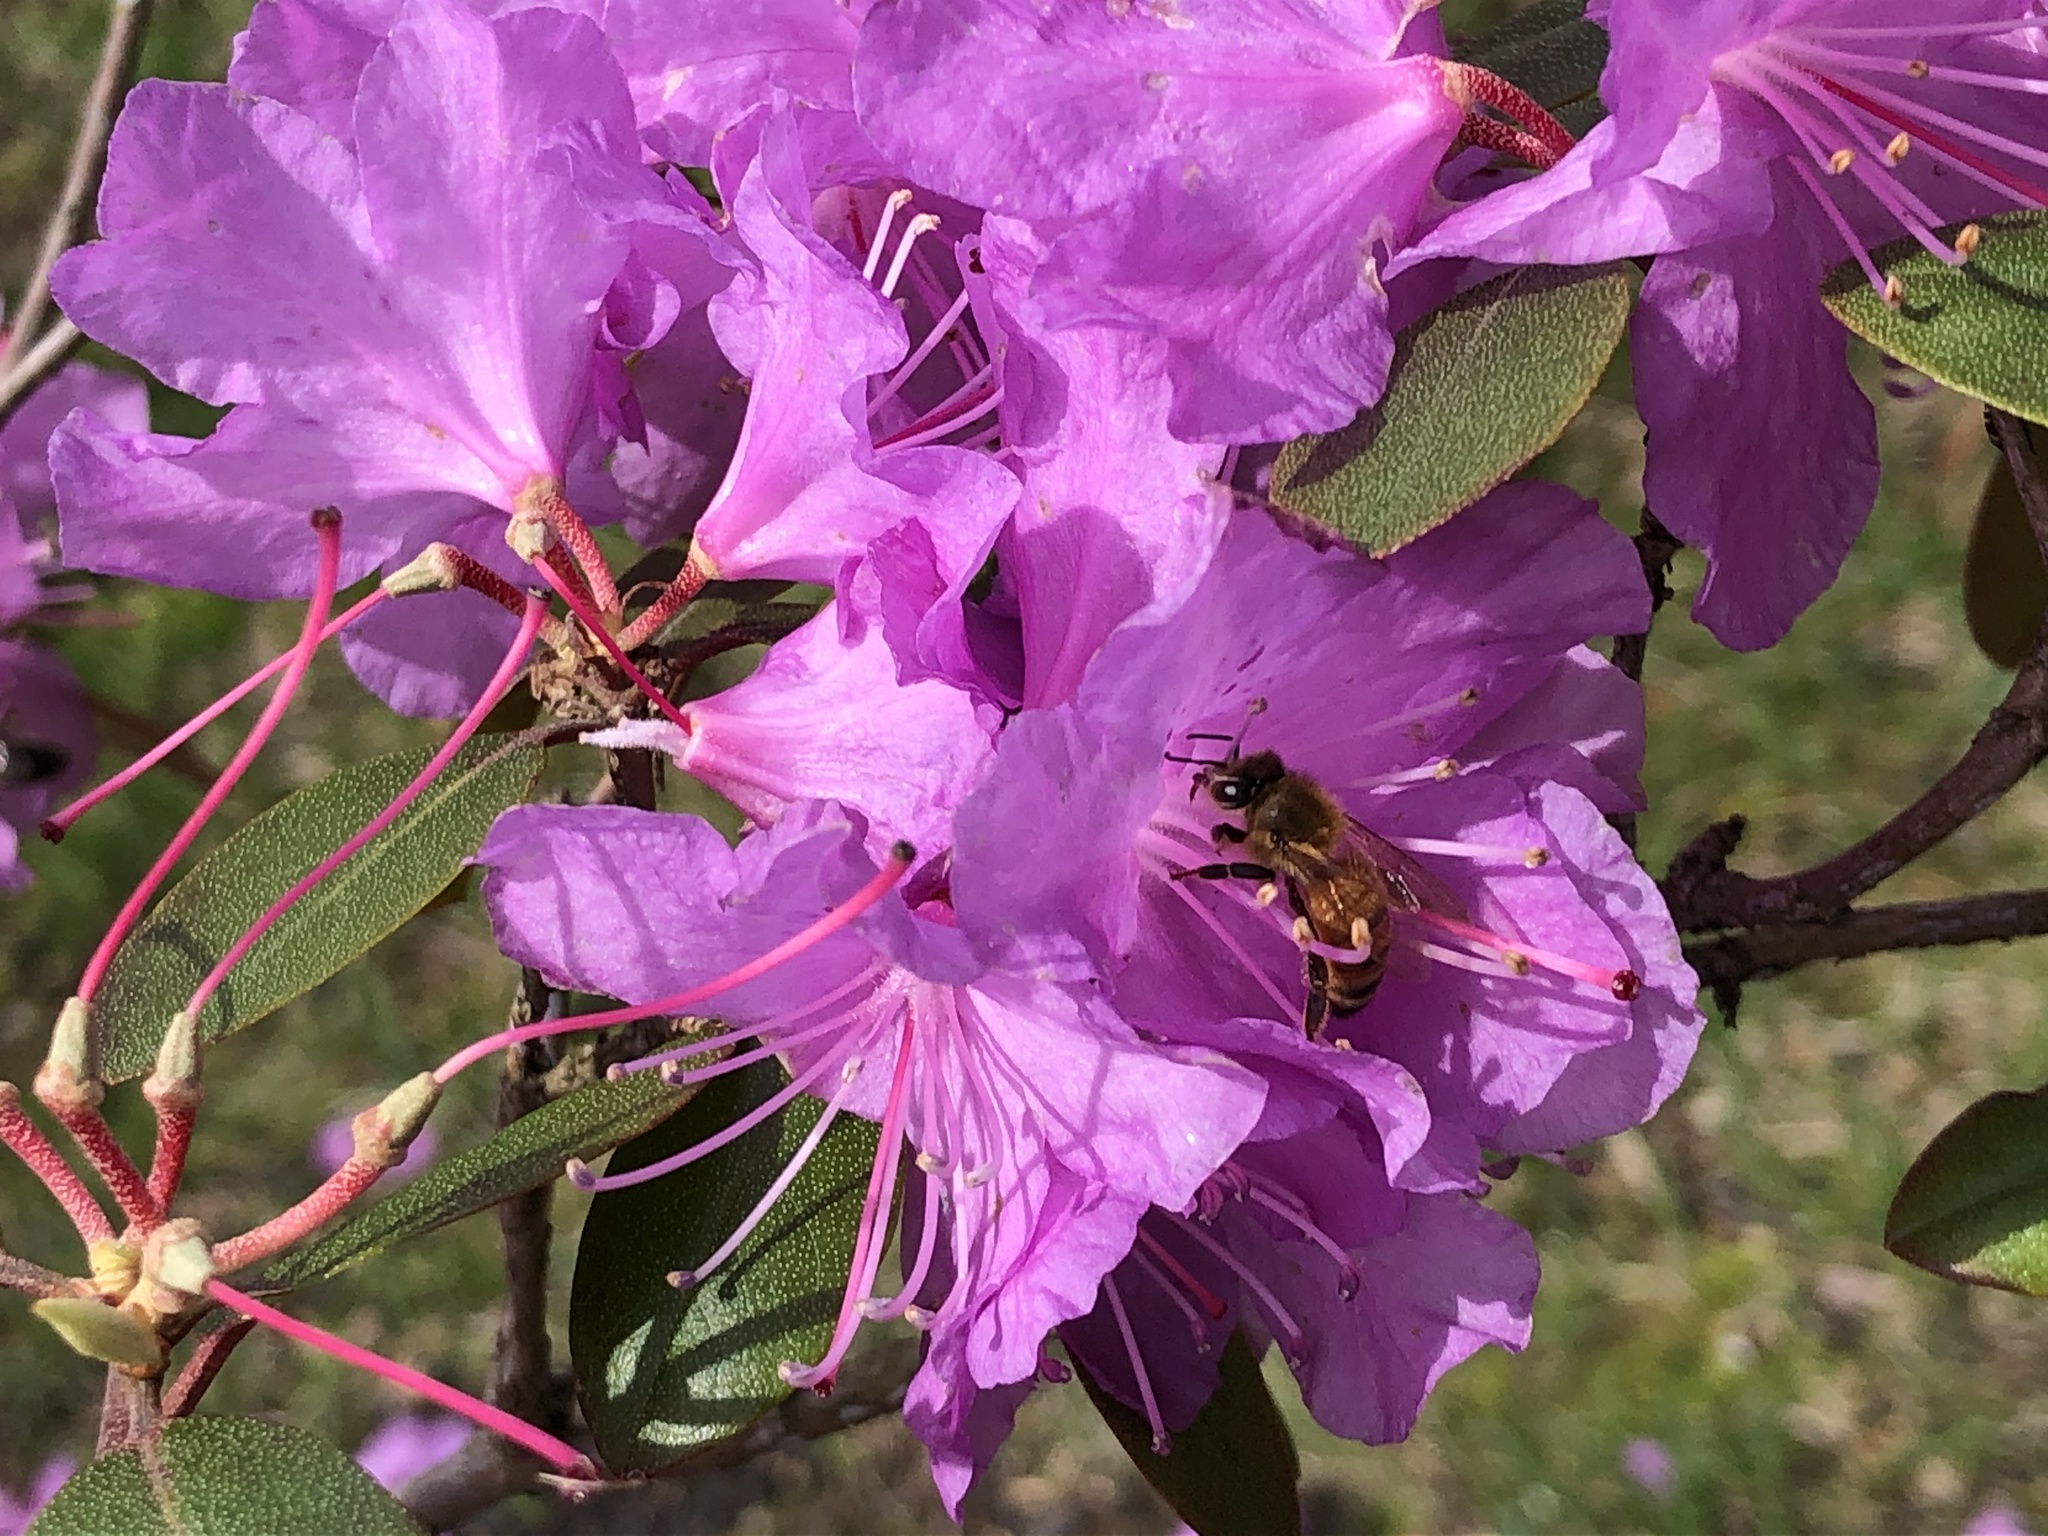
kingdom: Animalia
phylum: Arthropoda
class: Insecta
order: Hymenoptera
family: Apidae
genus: Apis
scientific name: Apis mellifera
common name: Honey bee
